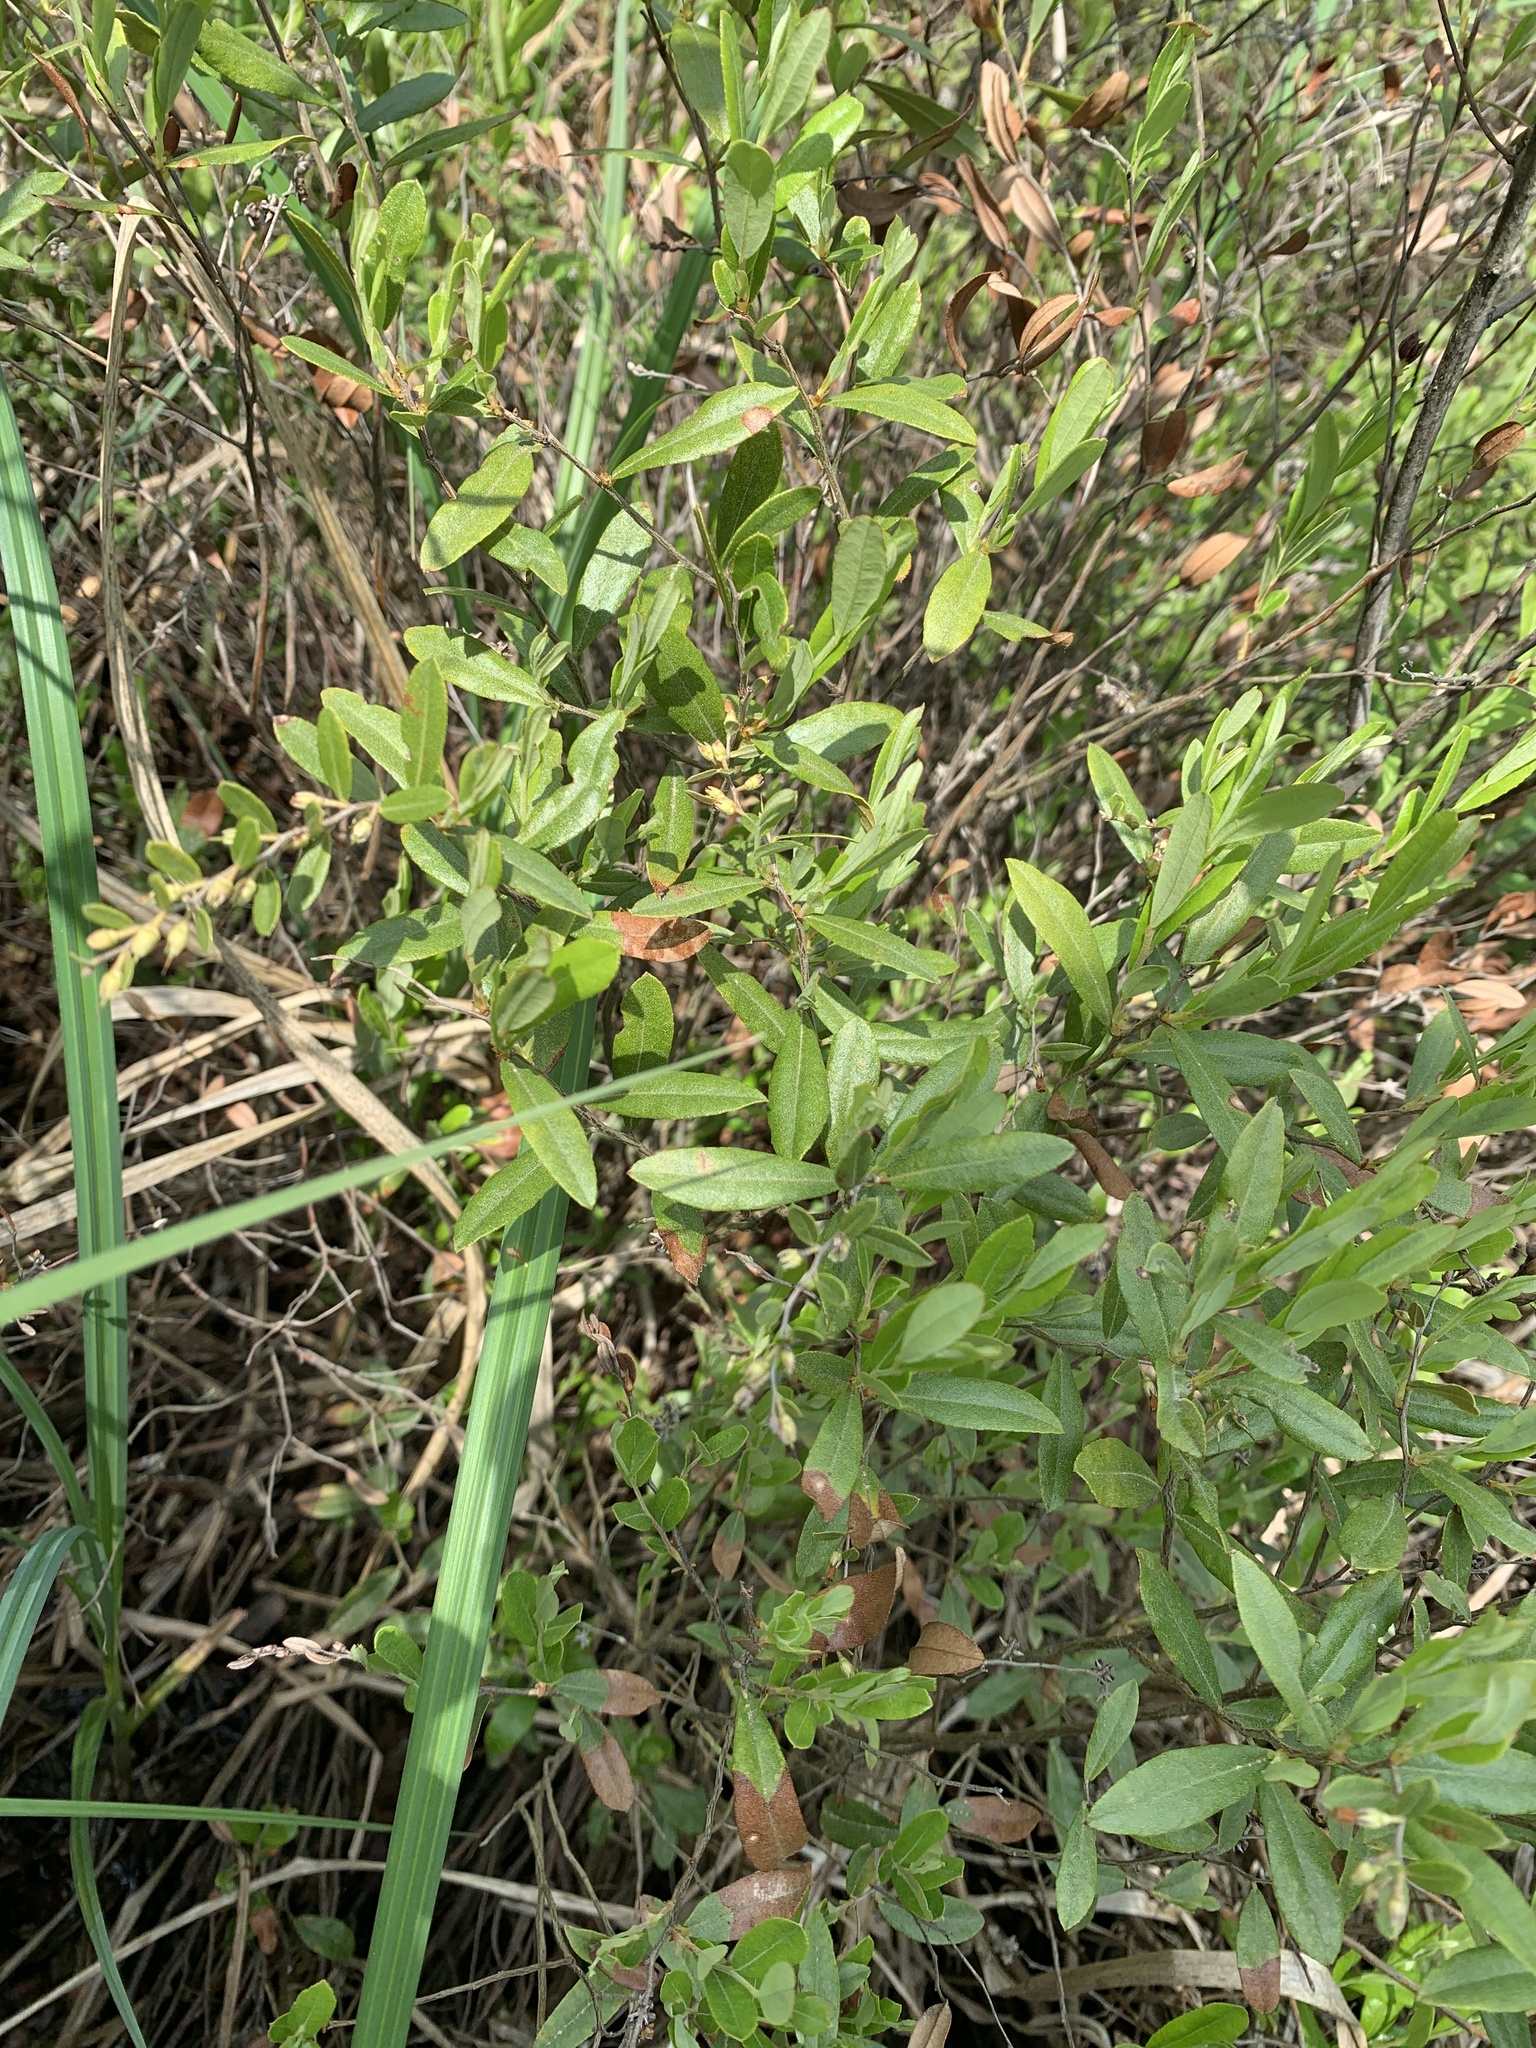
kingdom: Plantae
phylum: Tracheophyta
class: Magnoliopsida
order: Ericales
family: Ericaceae
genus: Chamaedaphne
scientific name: Chamaedaphne calyculata
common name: Leatherleaf
